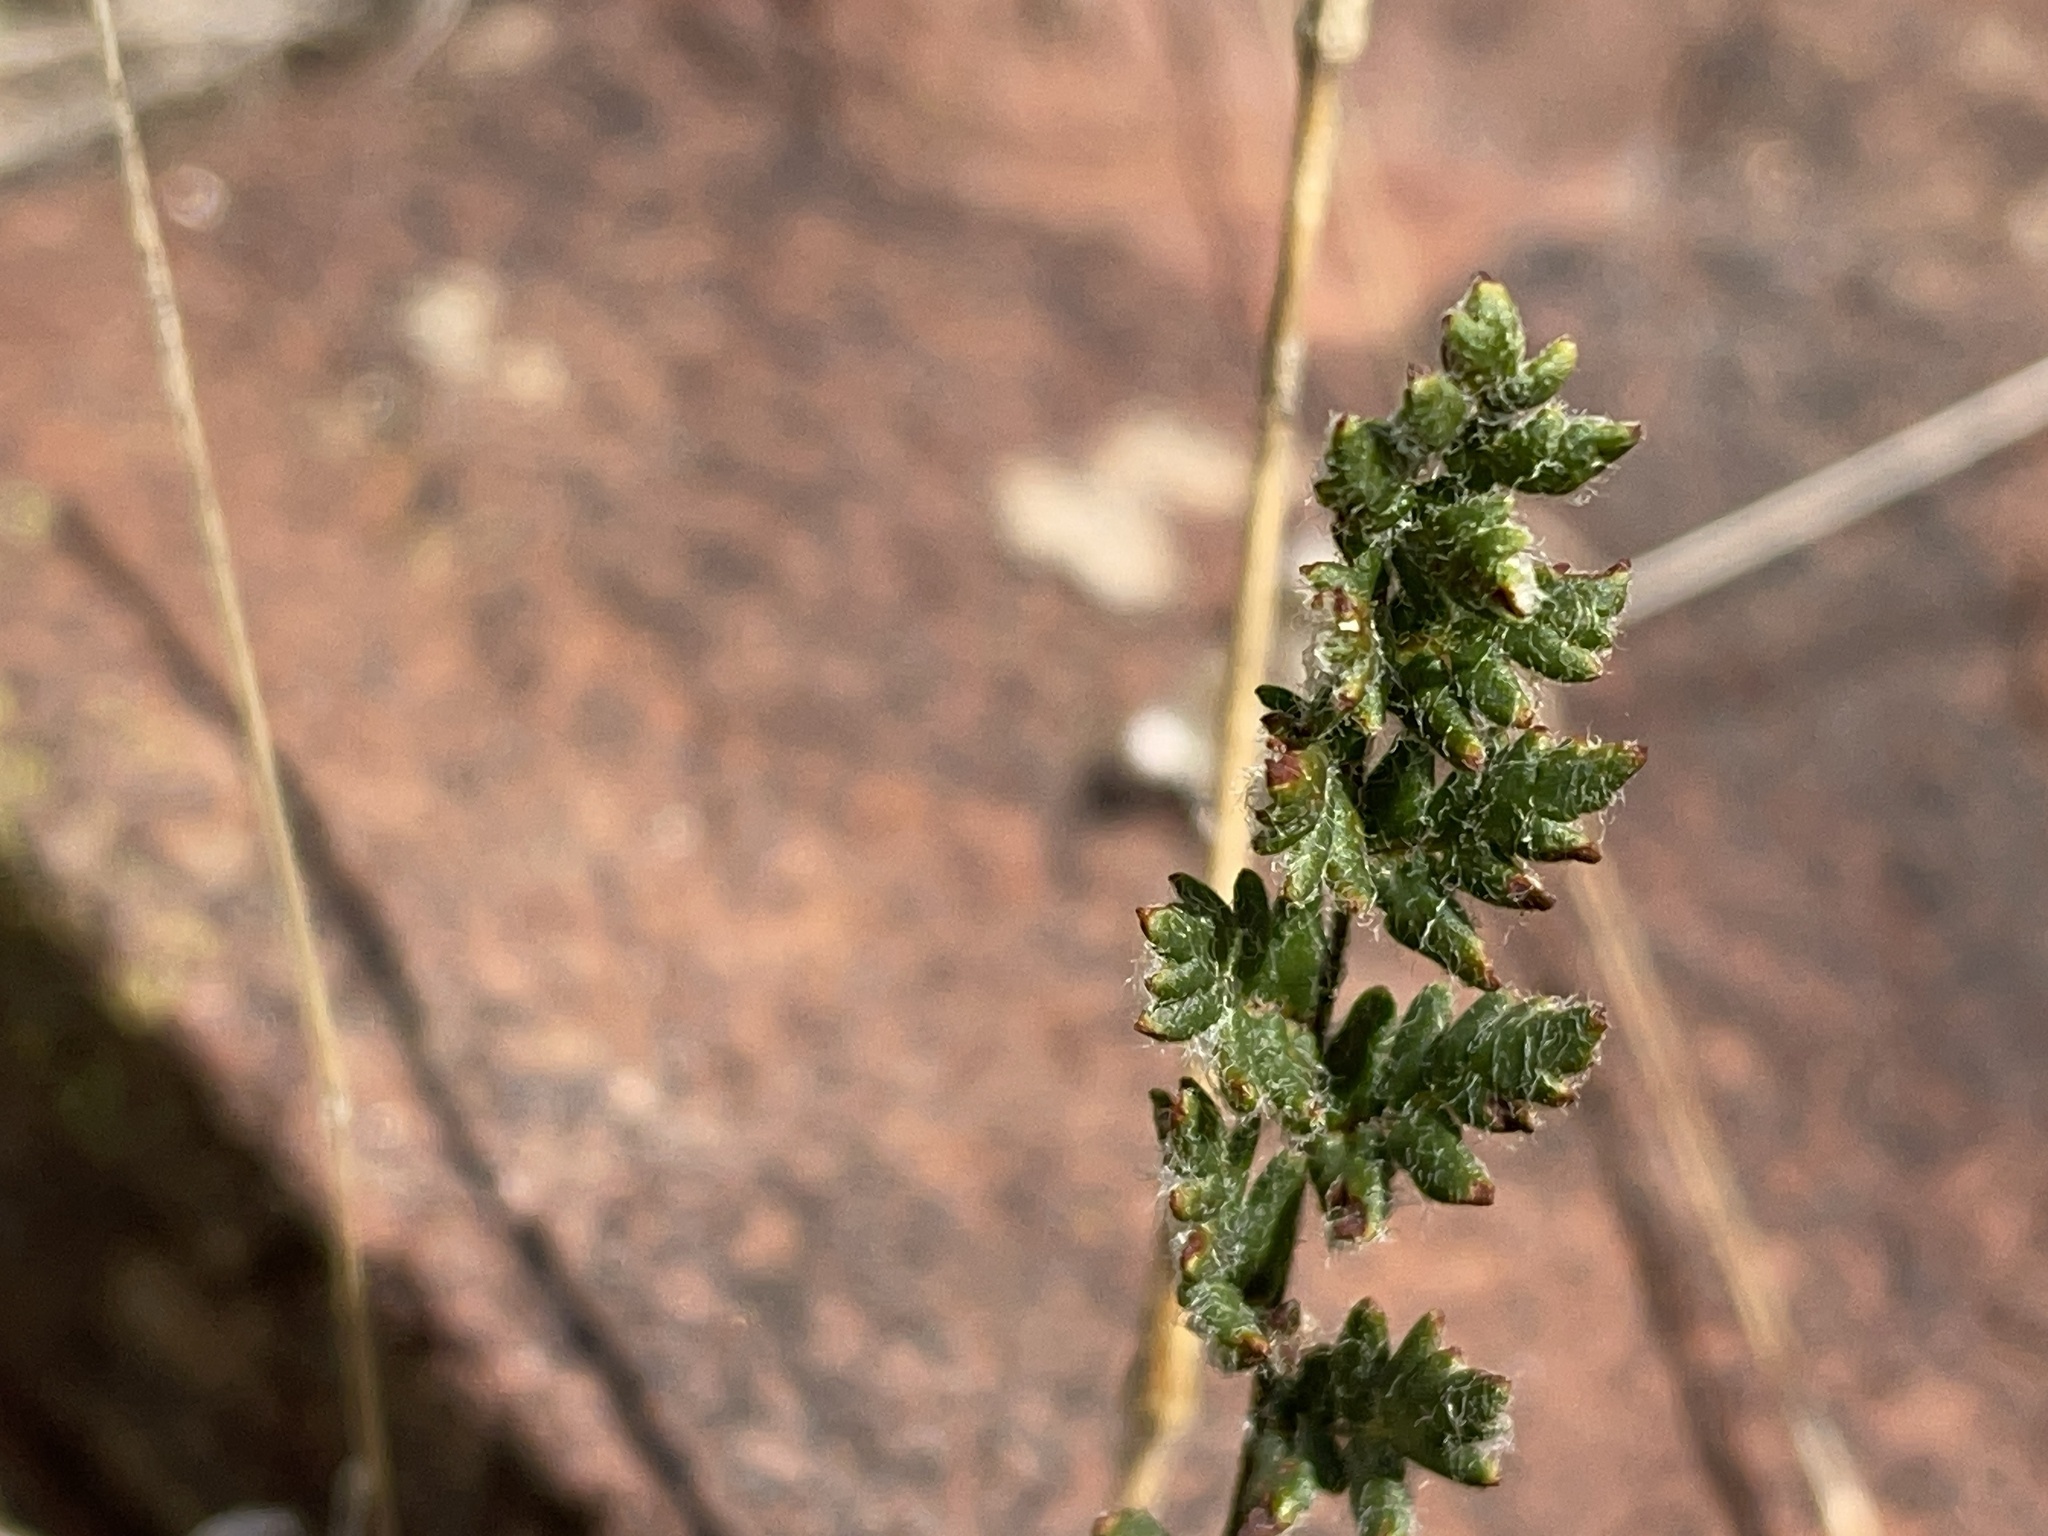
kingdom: Plantae
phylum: Tracheophyta
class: Polypodiopsida
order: Polypodiales
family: Pteridaceae
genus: Cheilanthes
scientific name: Cheilanthes distans
